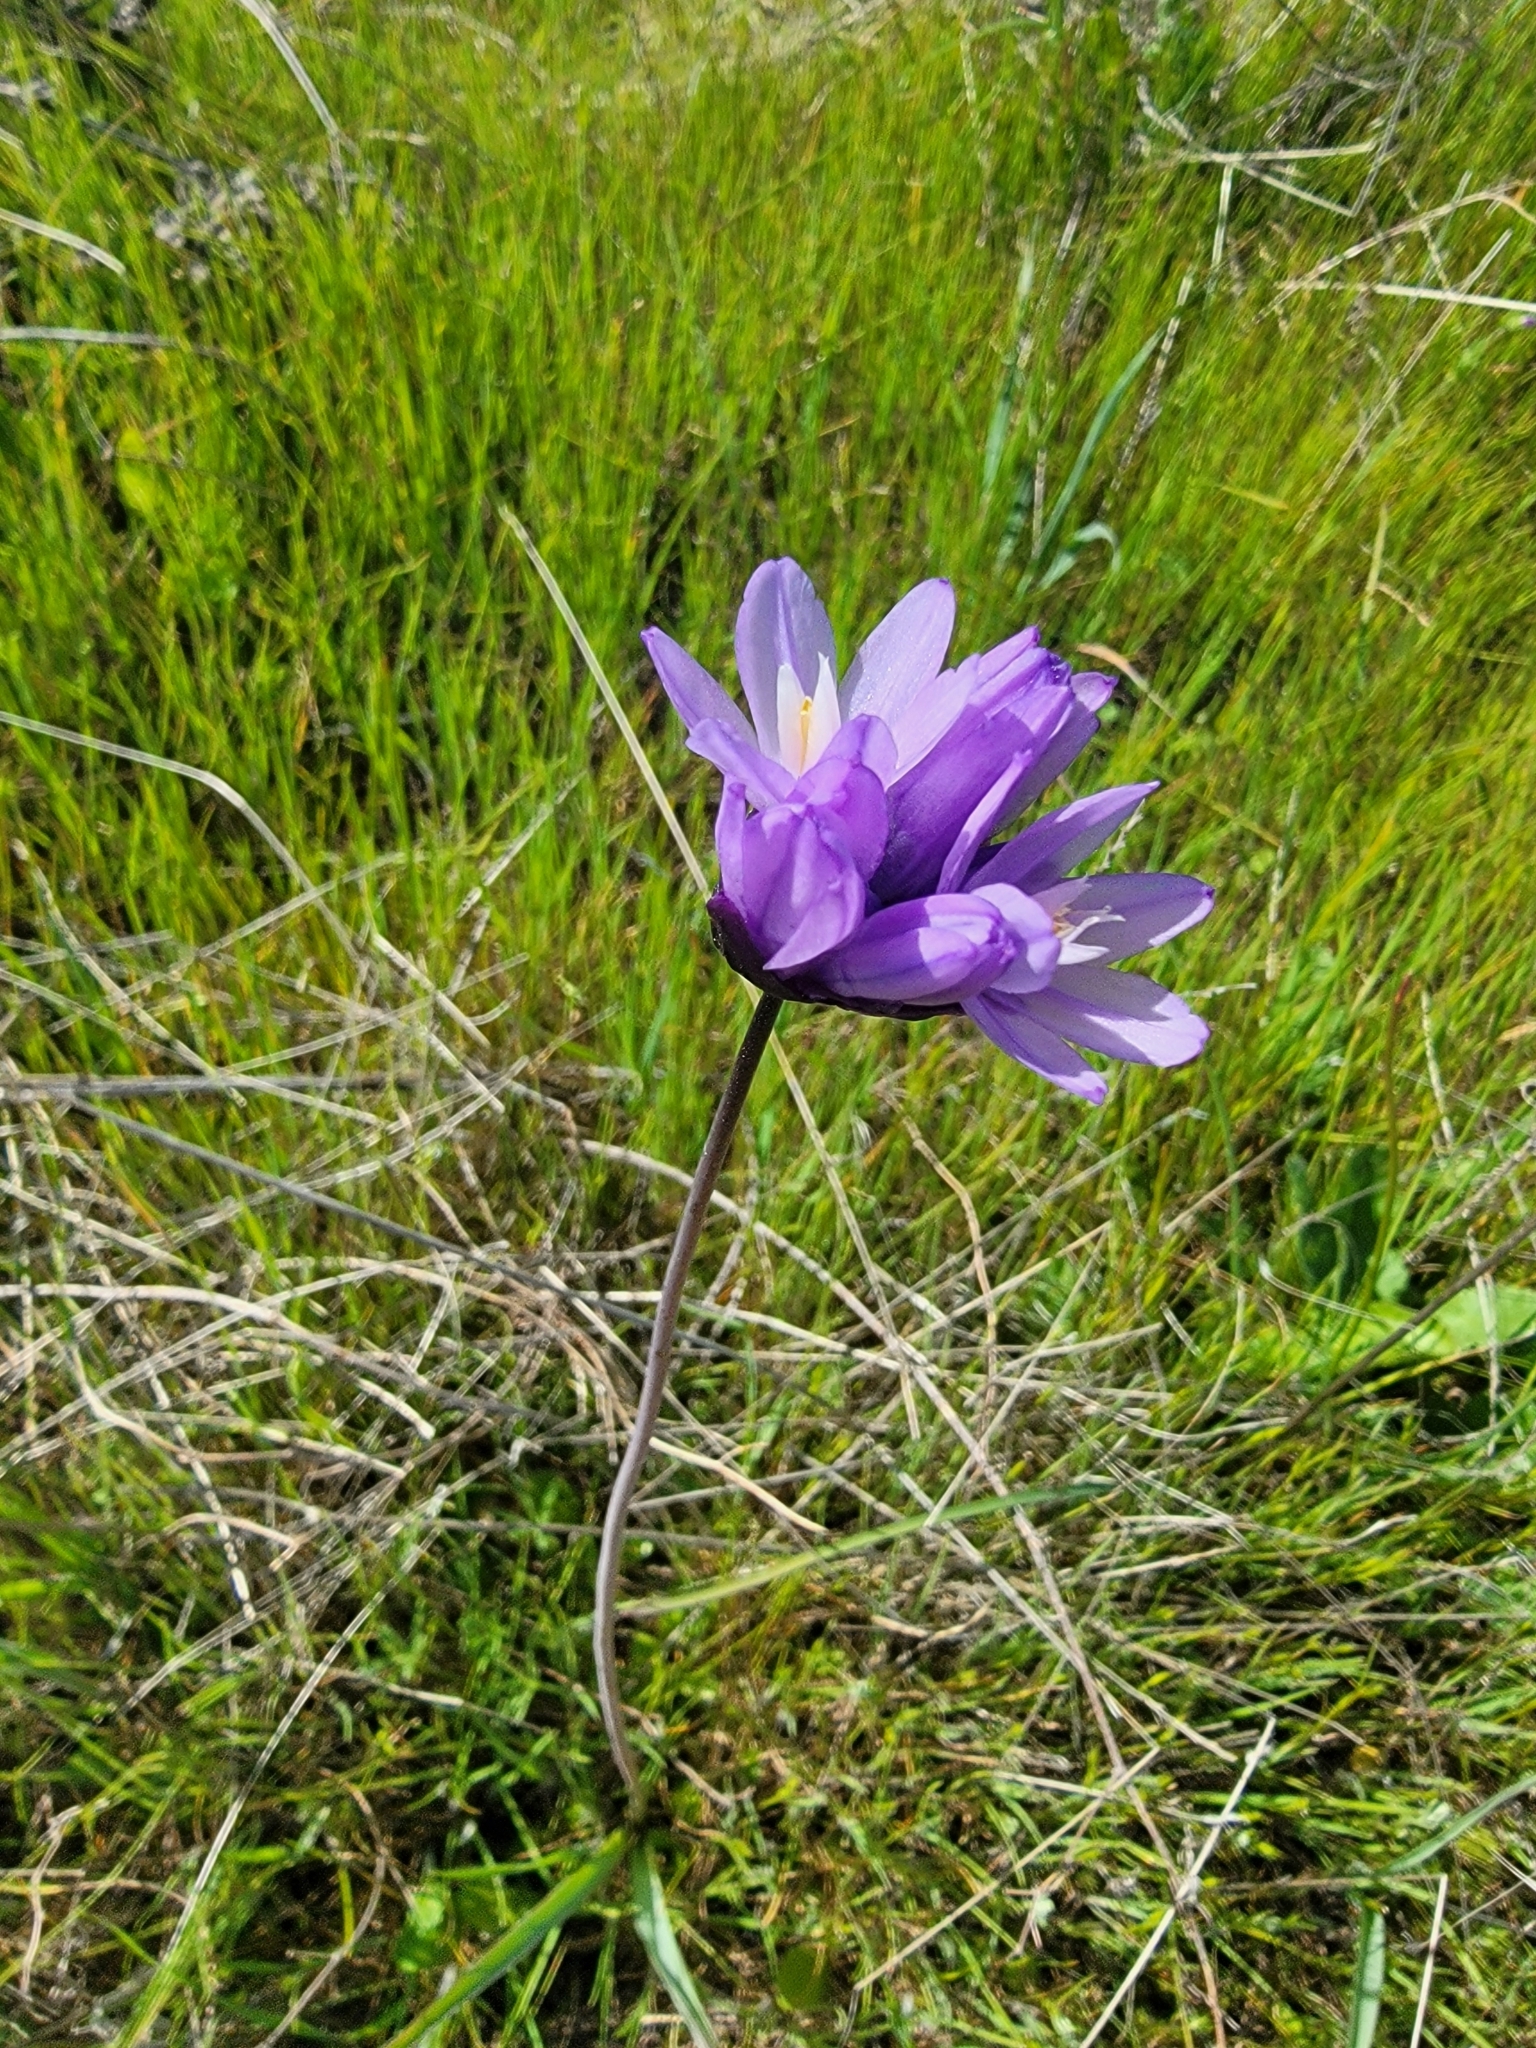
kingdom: Plantae
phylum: Tracheophyta
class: Liliopsida
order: Asparagales
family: Asparagaceae
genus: Dipterostemon
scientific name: Dipterostemon capitatus
